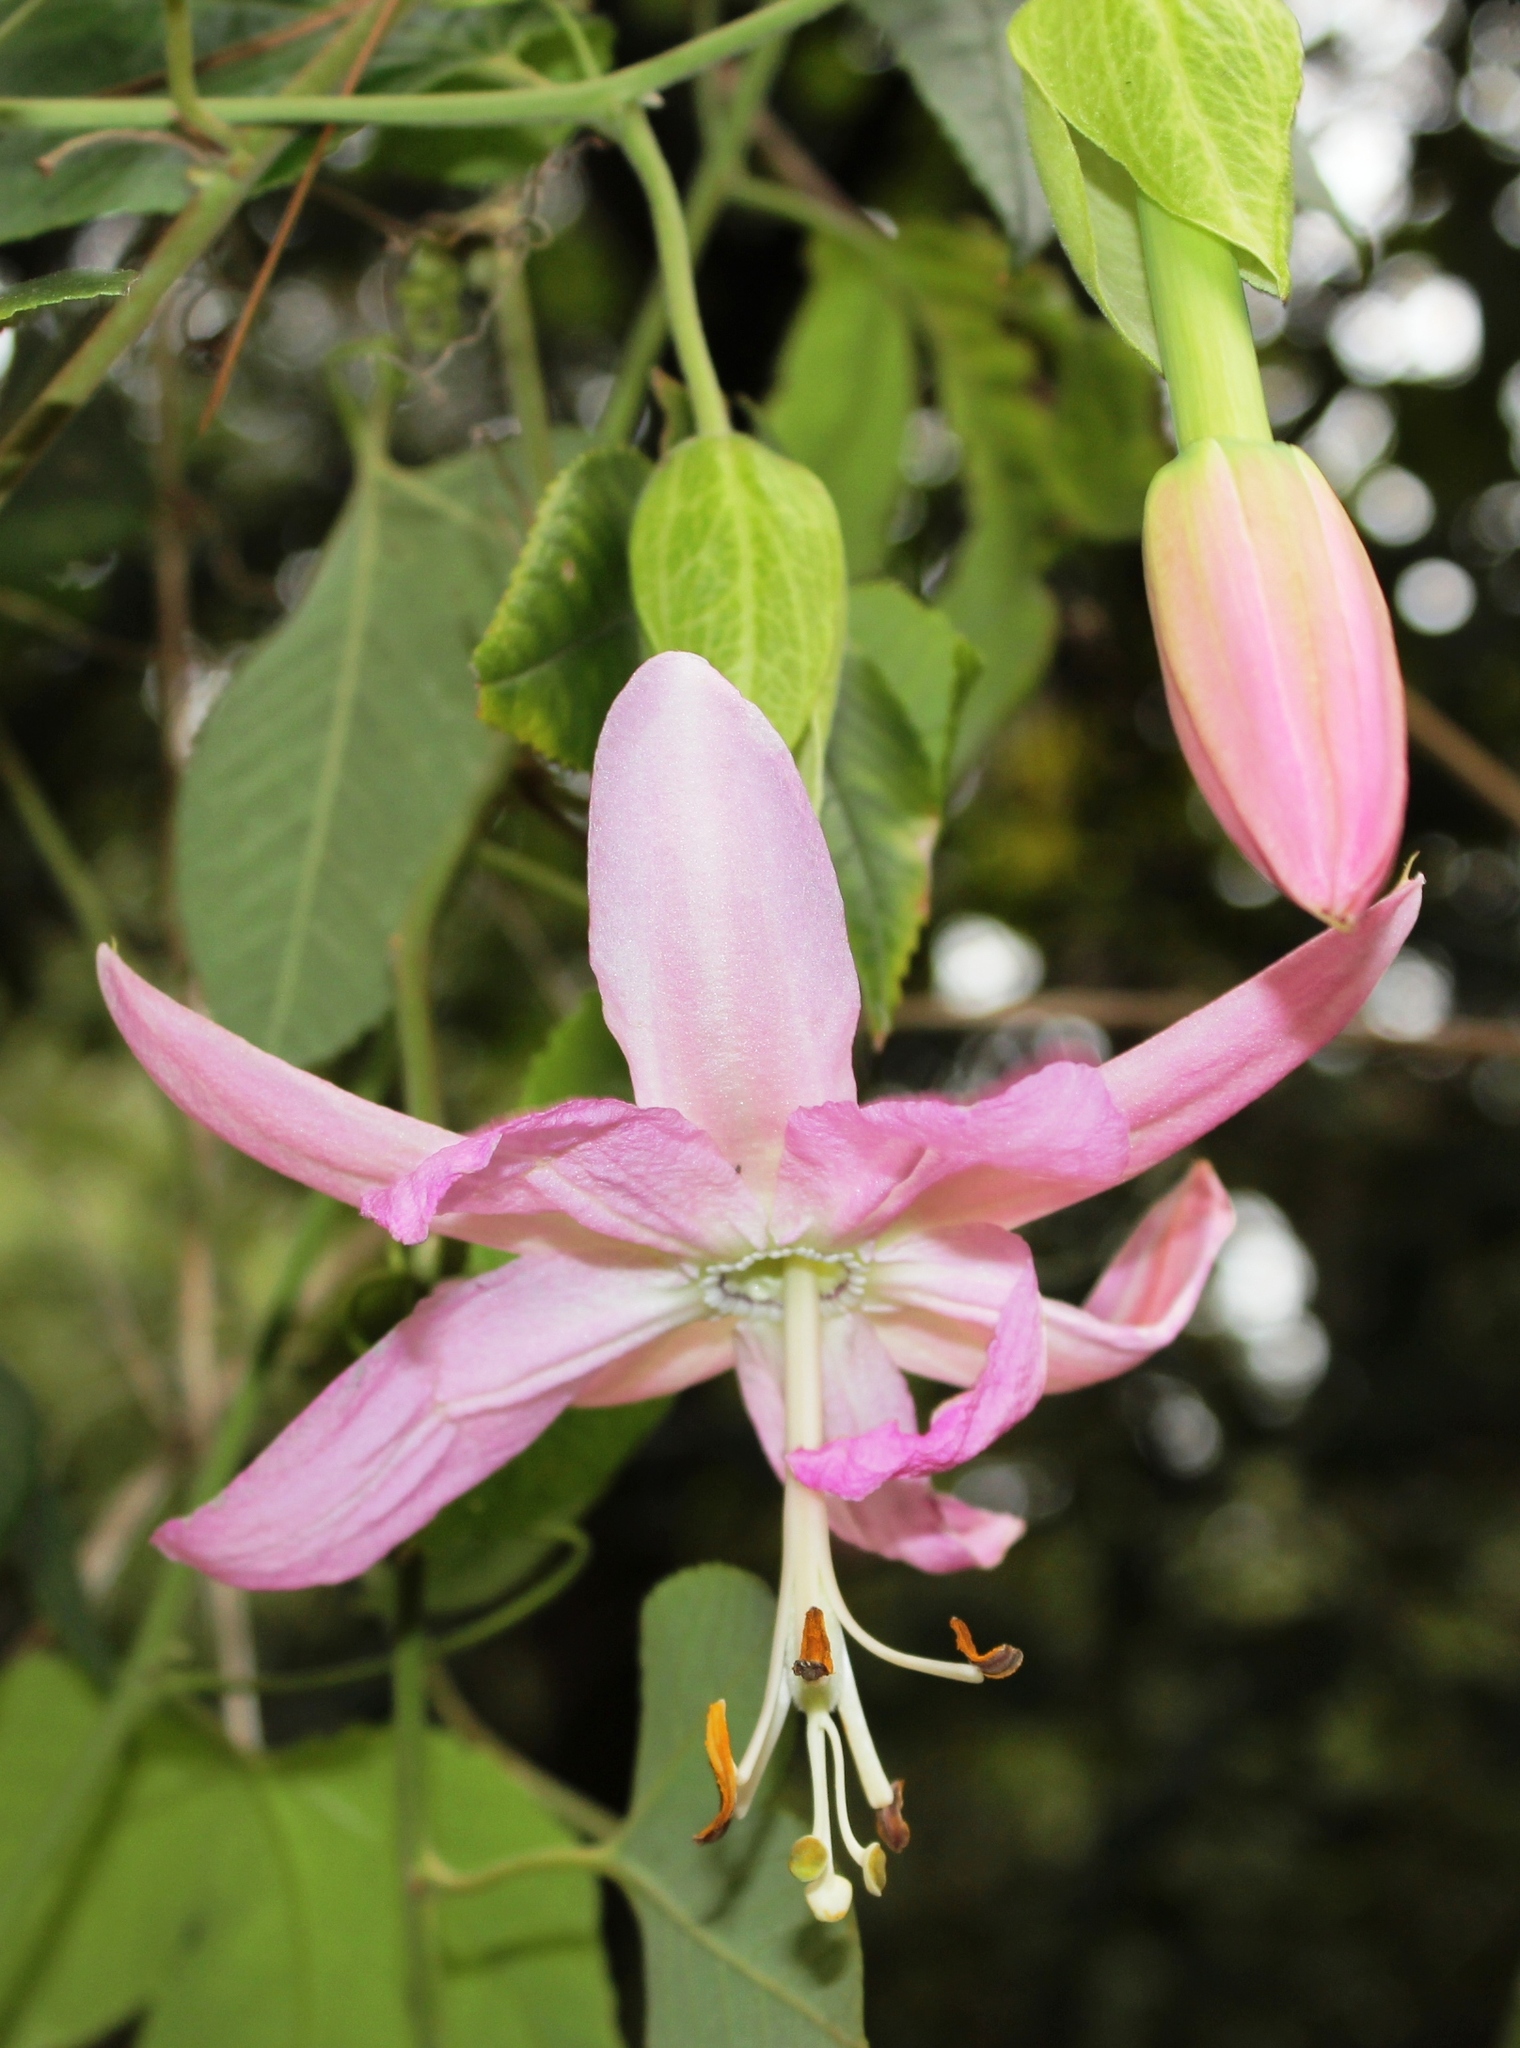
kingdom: Plantae
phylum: Tracheophyta
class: Magnoliopsida
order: Malpighiales
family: Passifloraceae
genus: Passiflora
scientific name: Passiflora tarminiana
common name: Banana poka
